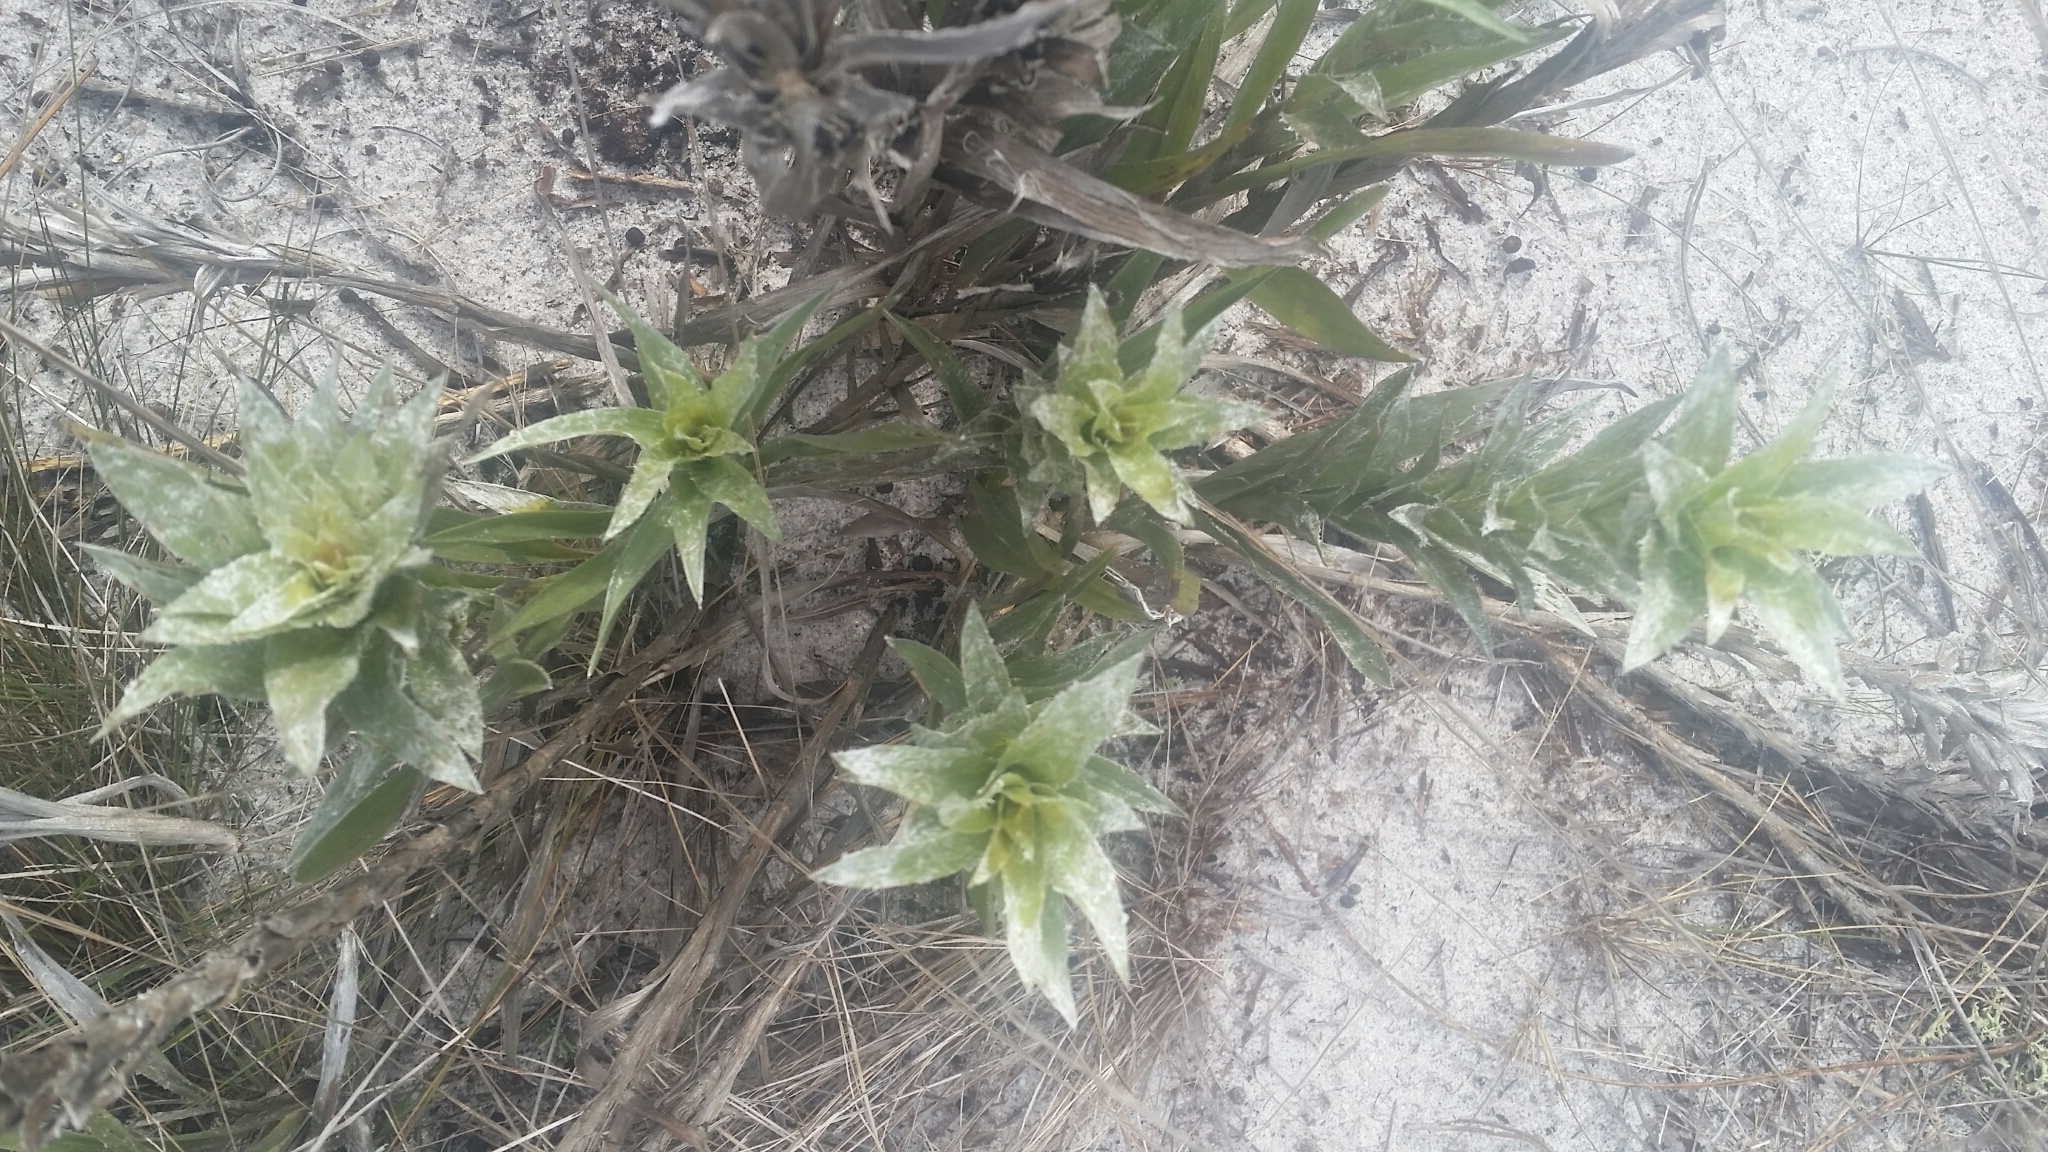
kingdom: Plantae
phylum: Tracheophyta
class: Magnoliopsida
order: Asterales
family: Asteraceae
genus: Pityopsis
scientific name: Pityopsis latifolia
